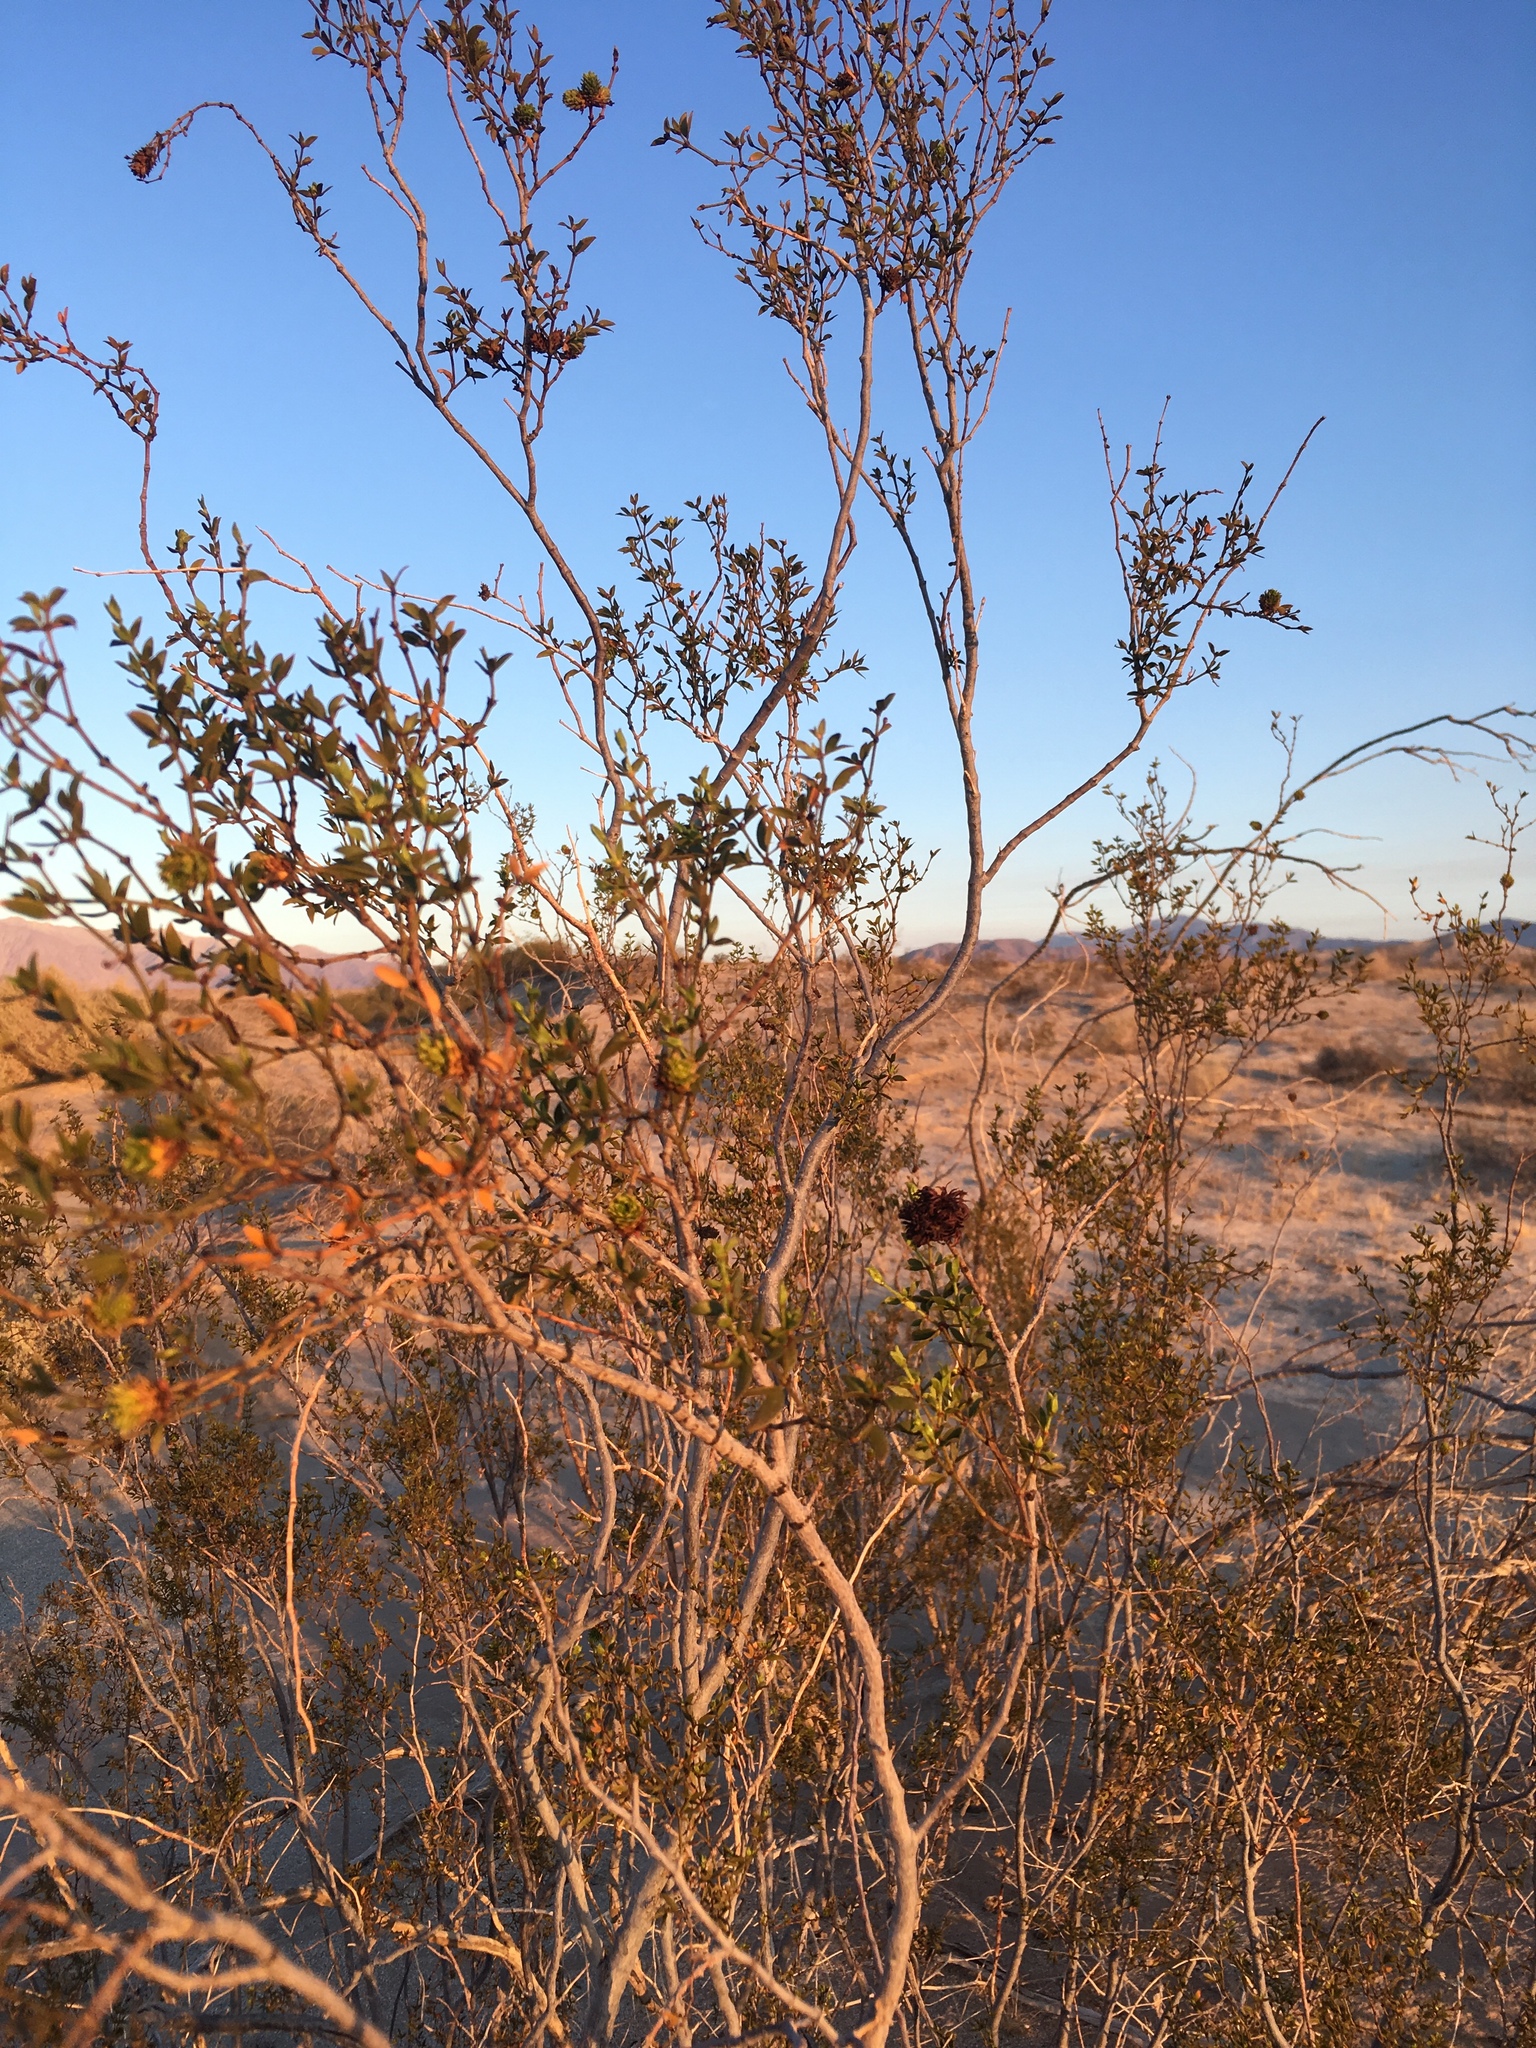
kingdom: Animalia
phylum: Arthropoda
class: Insecta
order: Diptera
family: Cecidomyiidae
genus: Asphondylia
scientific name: Asphondylia auripila
